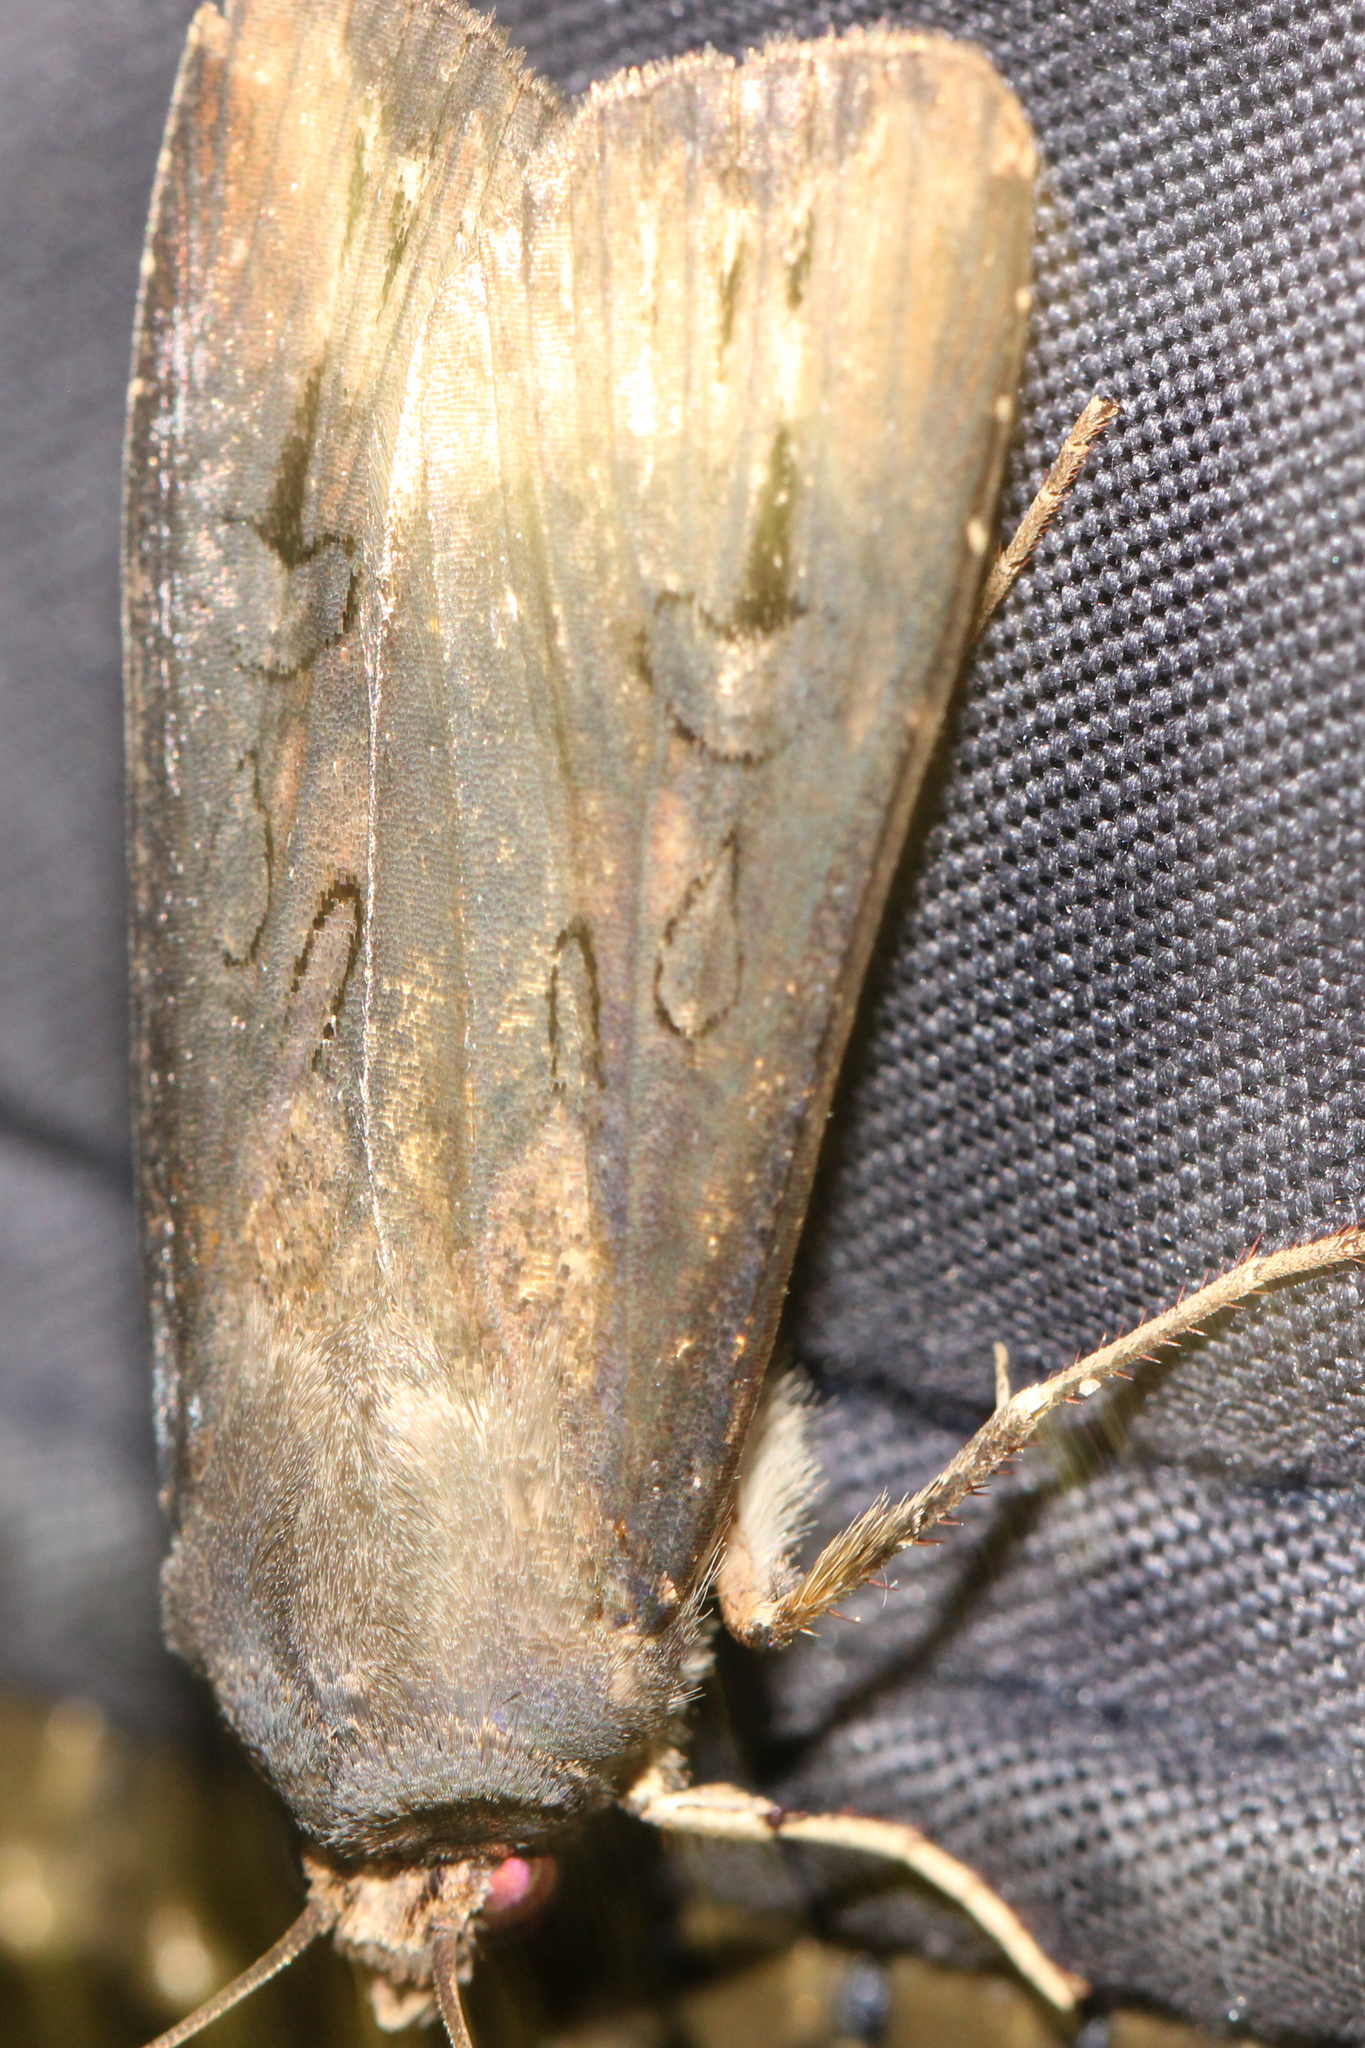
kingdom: Animalia
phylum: Arthropoda
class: Insecta
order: Lepidoptera
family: Noctuidae
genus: Agrotis
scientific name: Agrotis ipsilon
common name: Dark sword-grass
